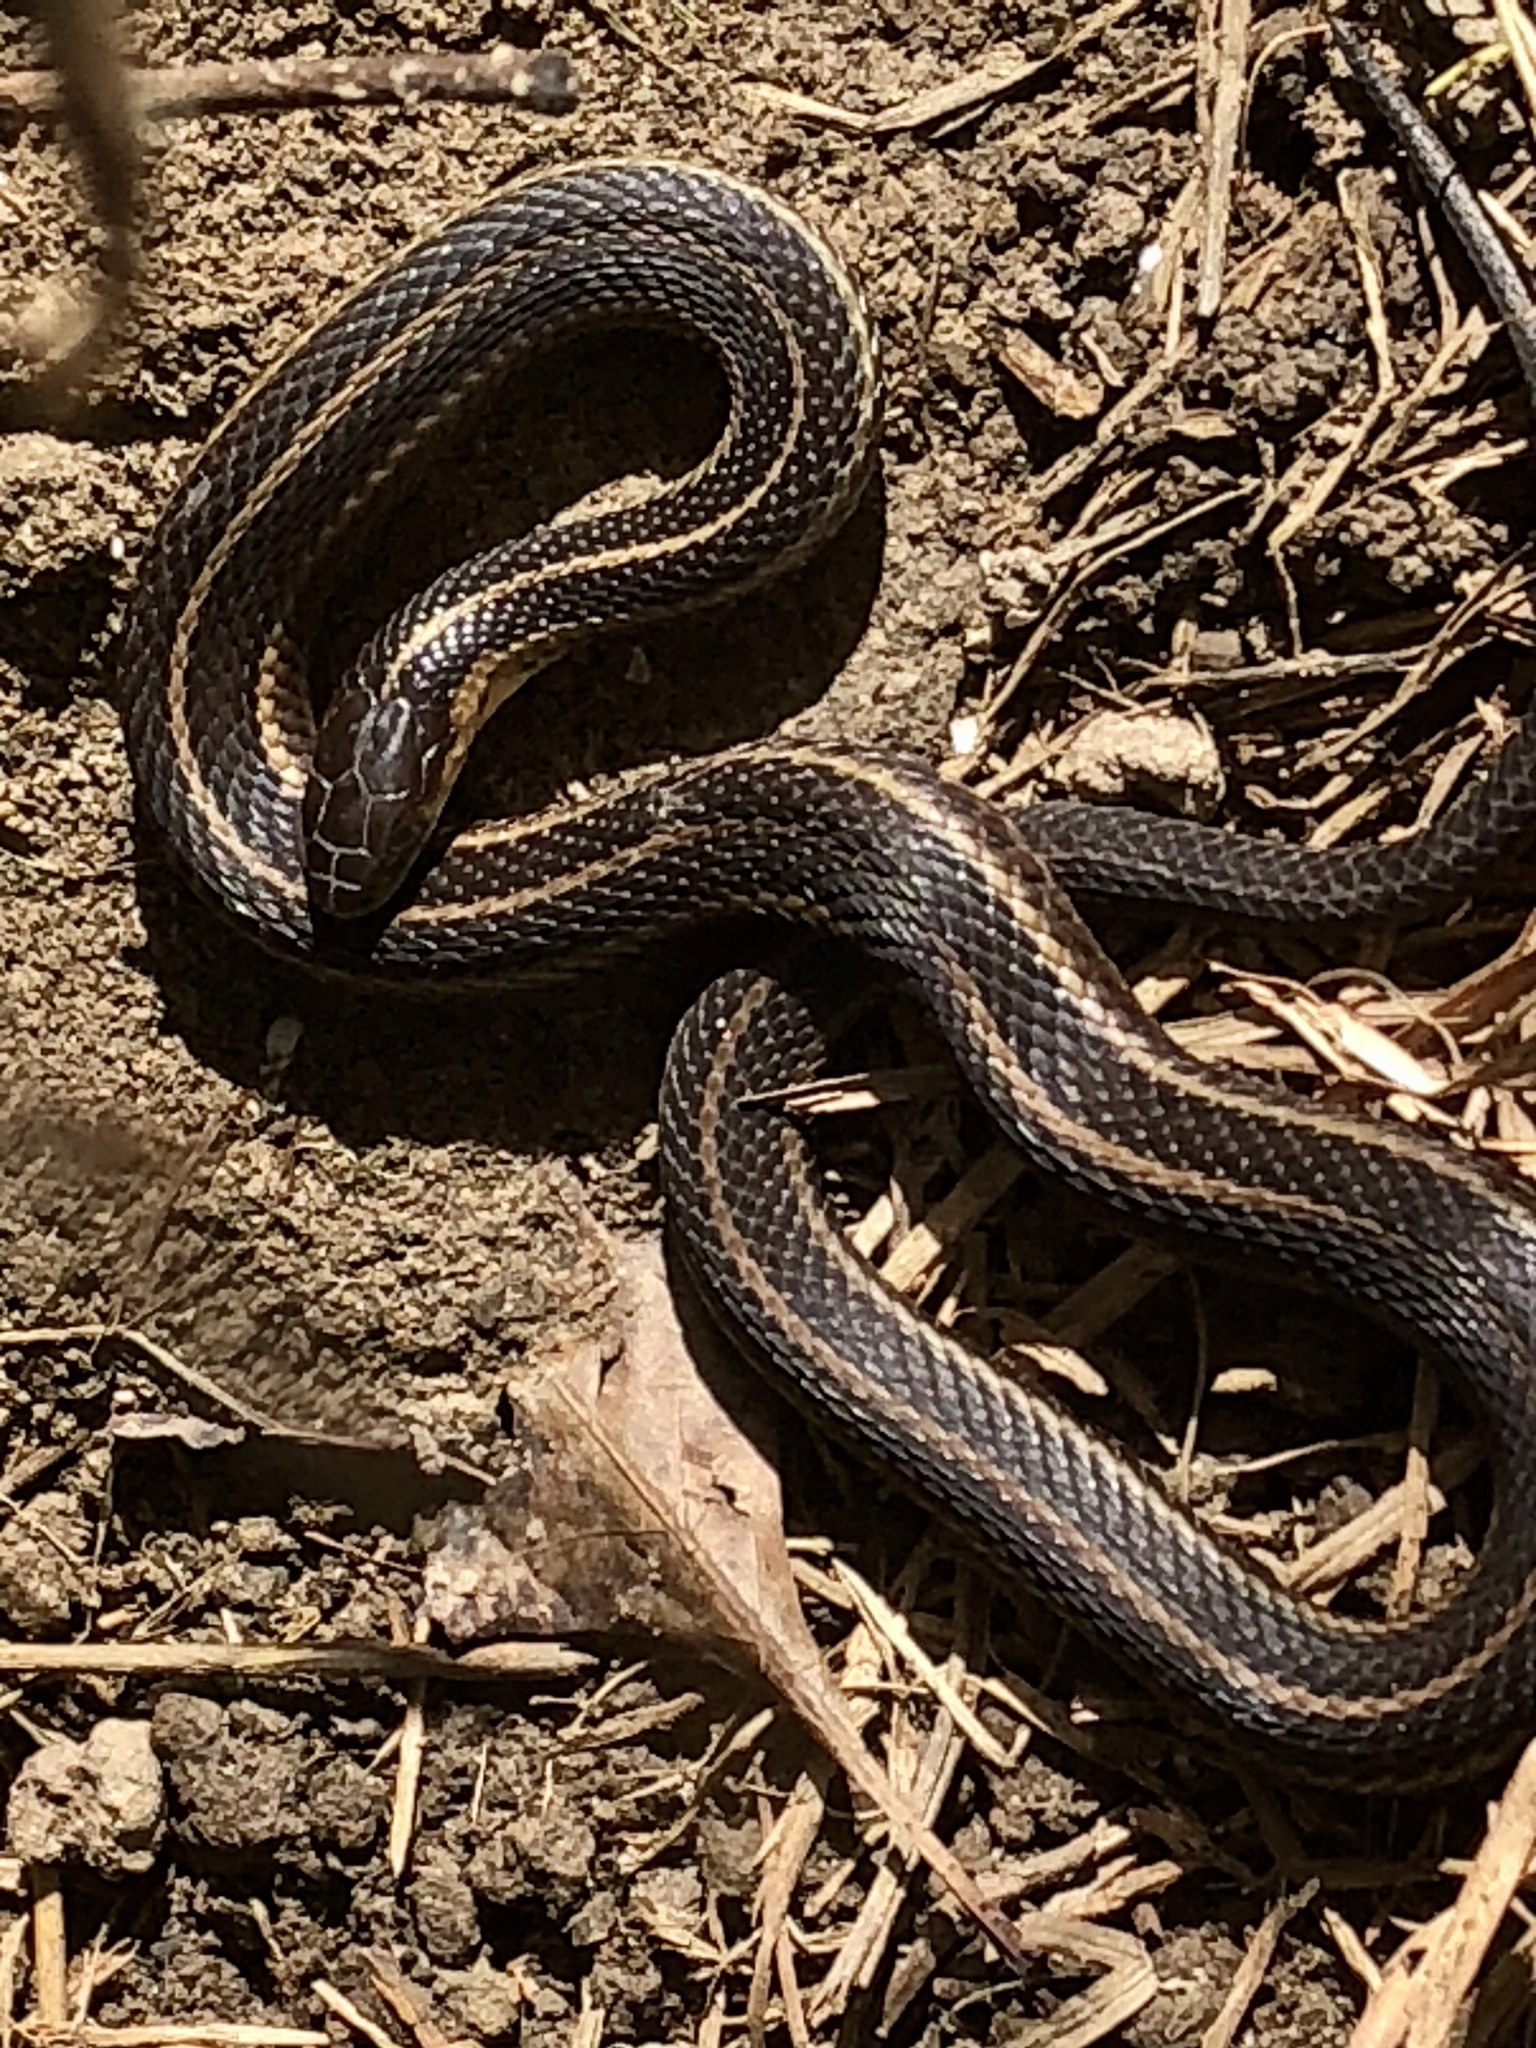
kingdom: Animalia
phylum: Chordata
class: Squamata
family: Colubridae
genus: Thamnophis
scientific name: Thamnophis butleri
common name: Butler's garter snake
